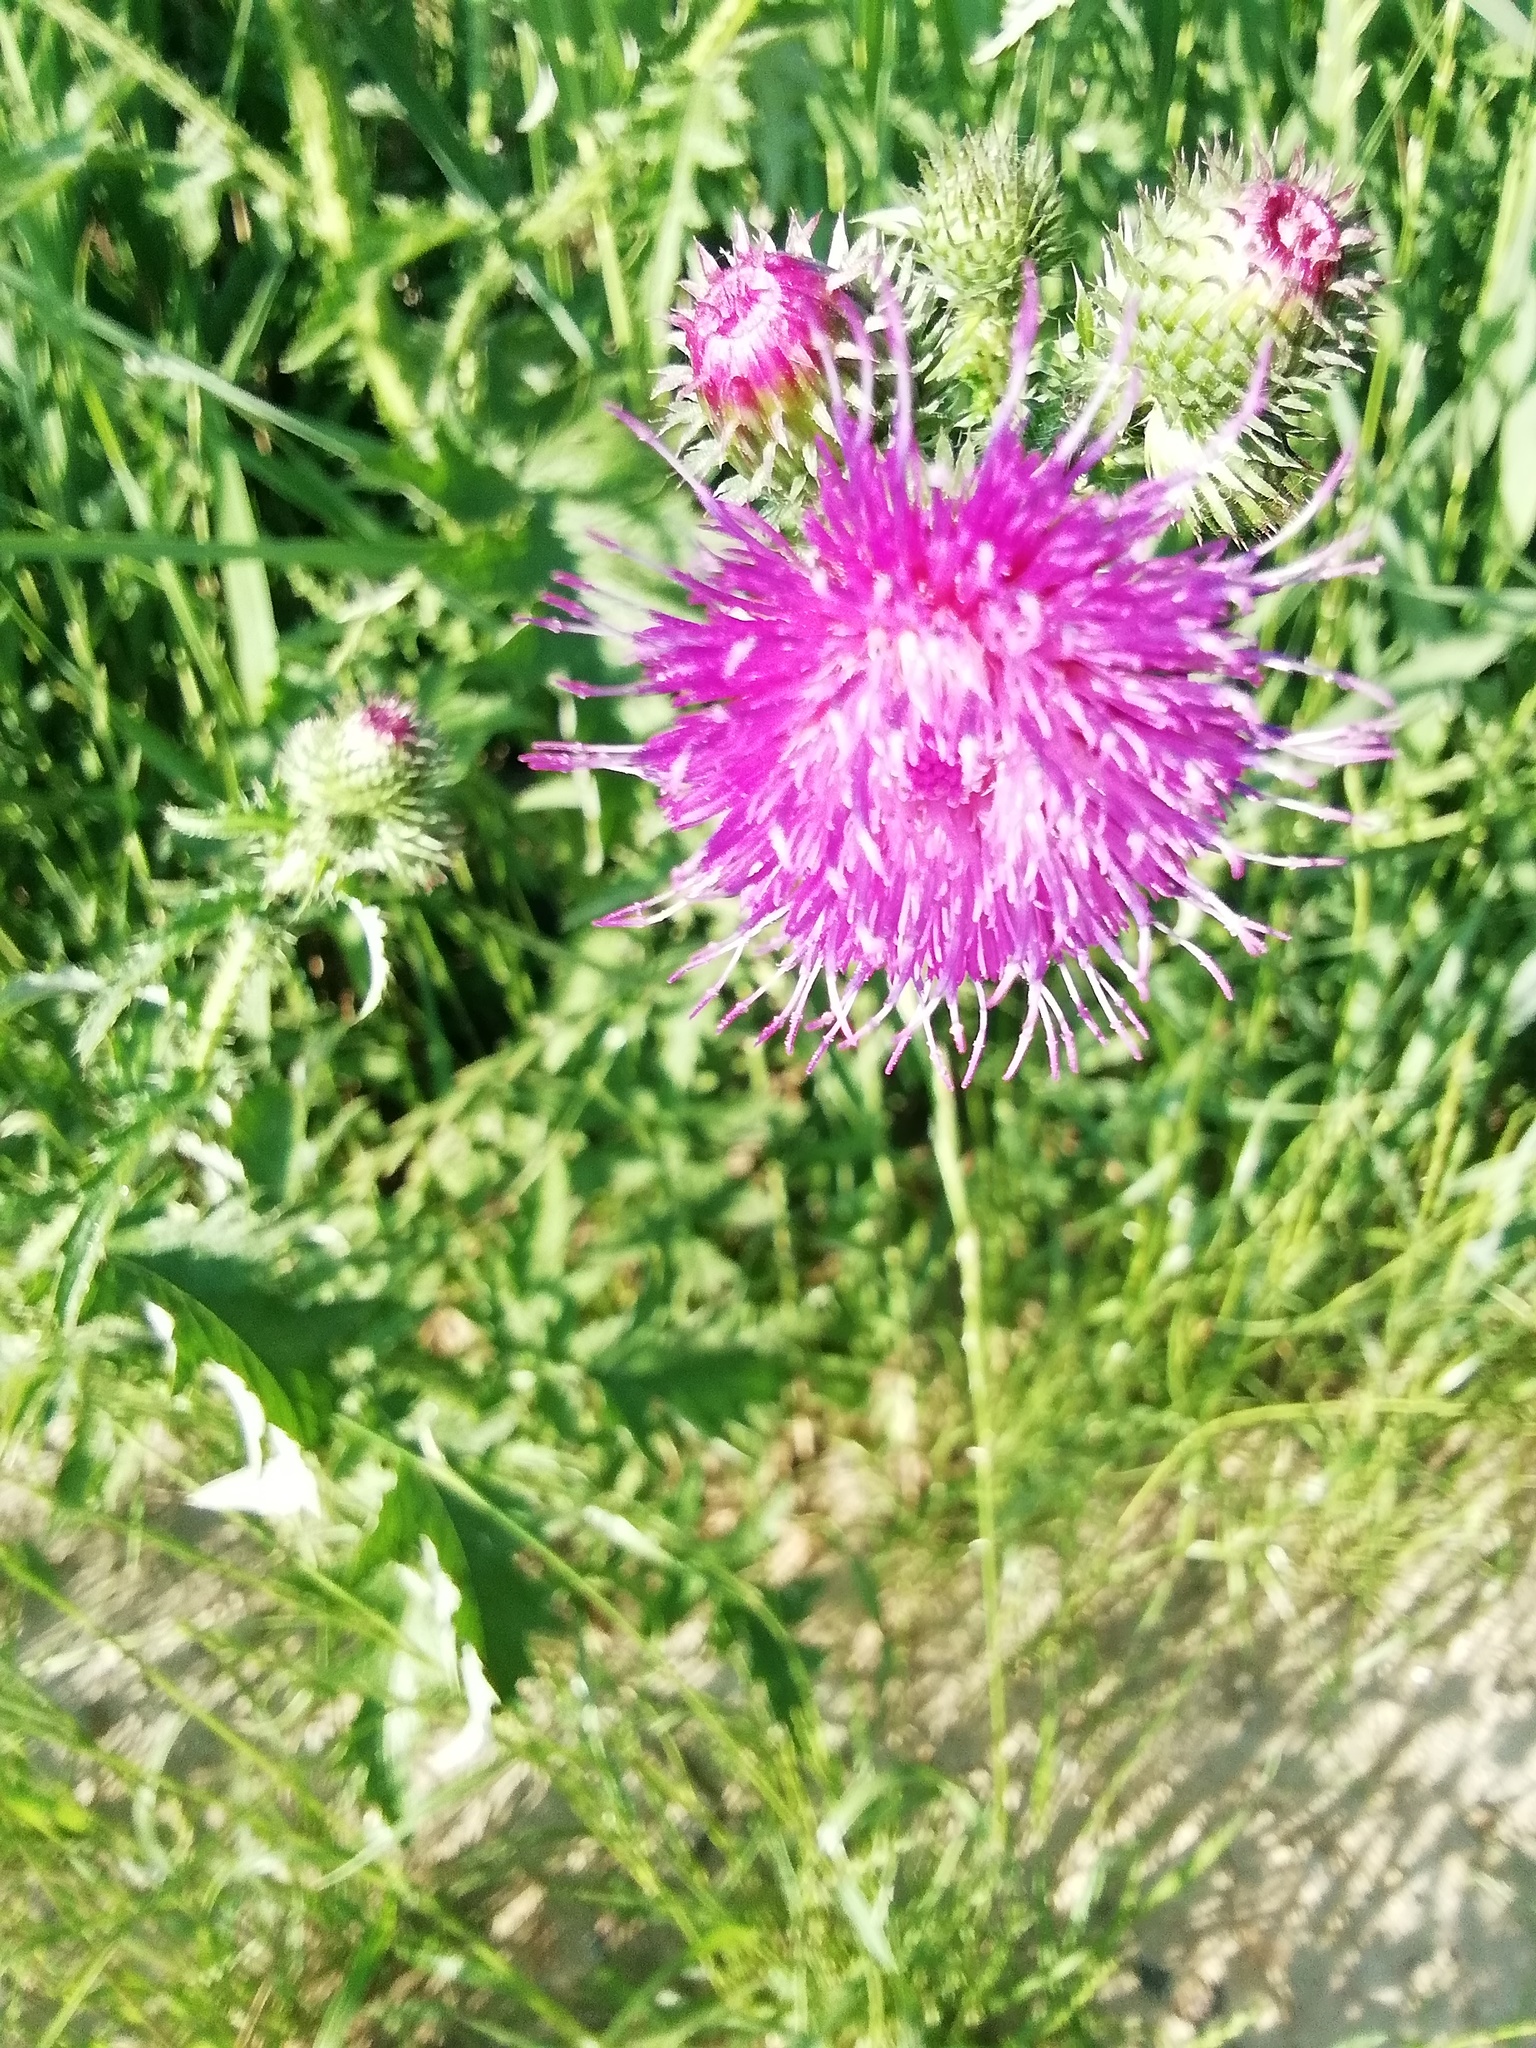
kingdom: Plantae
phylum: Tracheophyta
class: Magnoliopsida
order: Asterales
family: Asteraceae
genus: Carduus
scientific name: Carduus crispus
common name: Welted thistle
